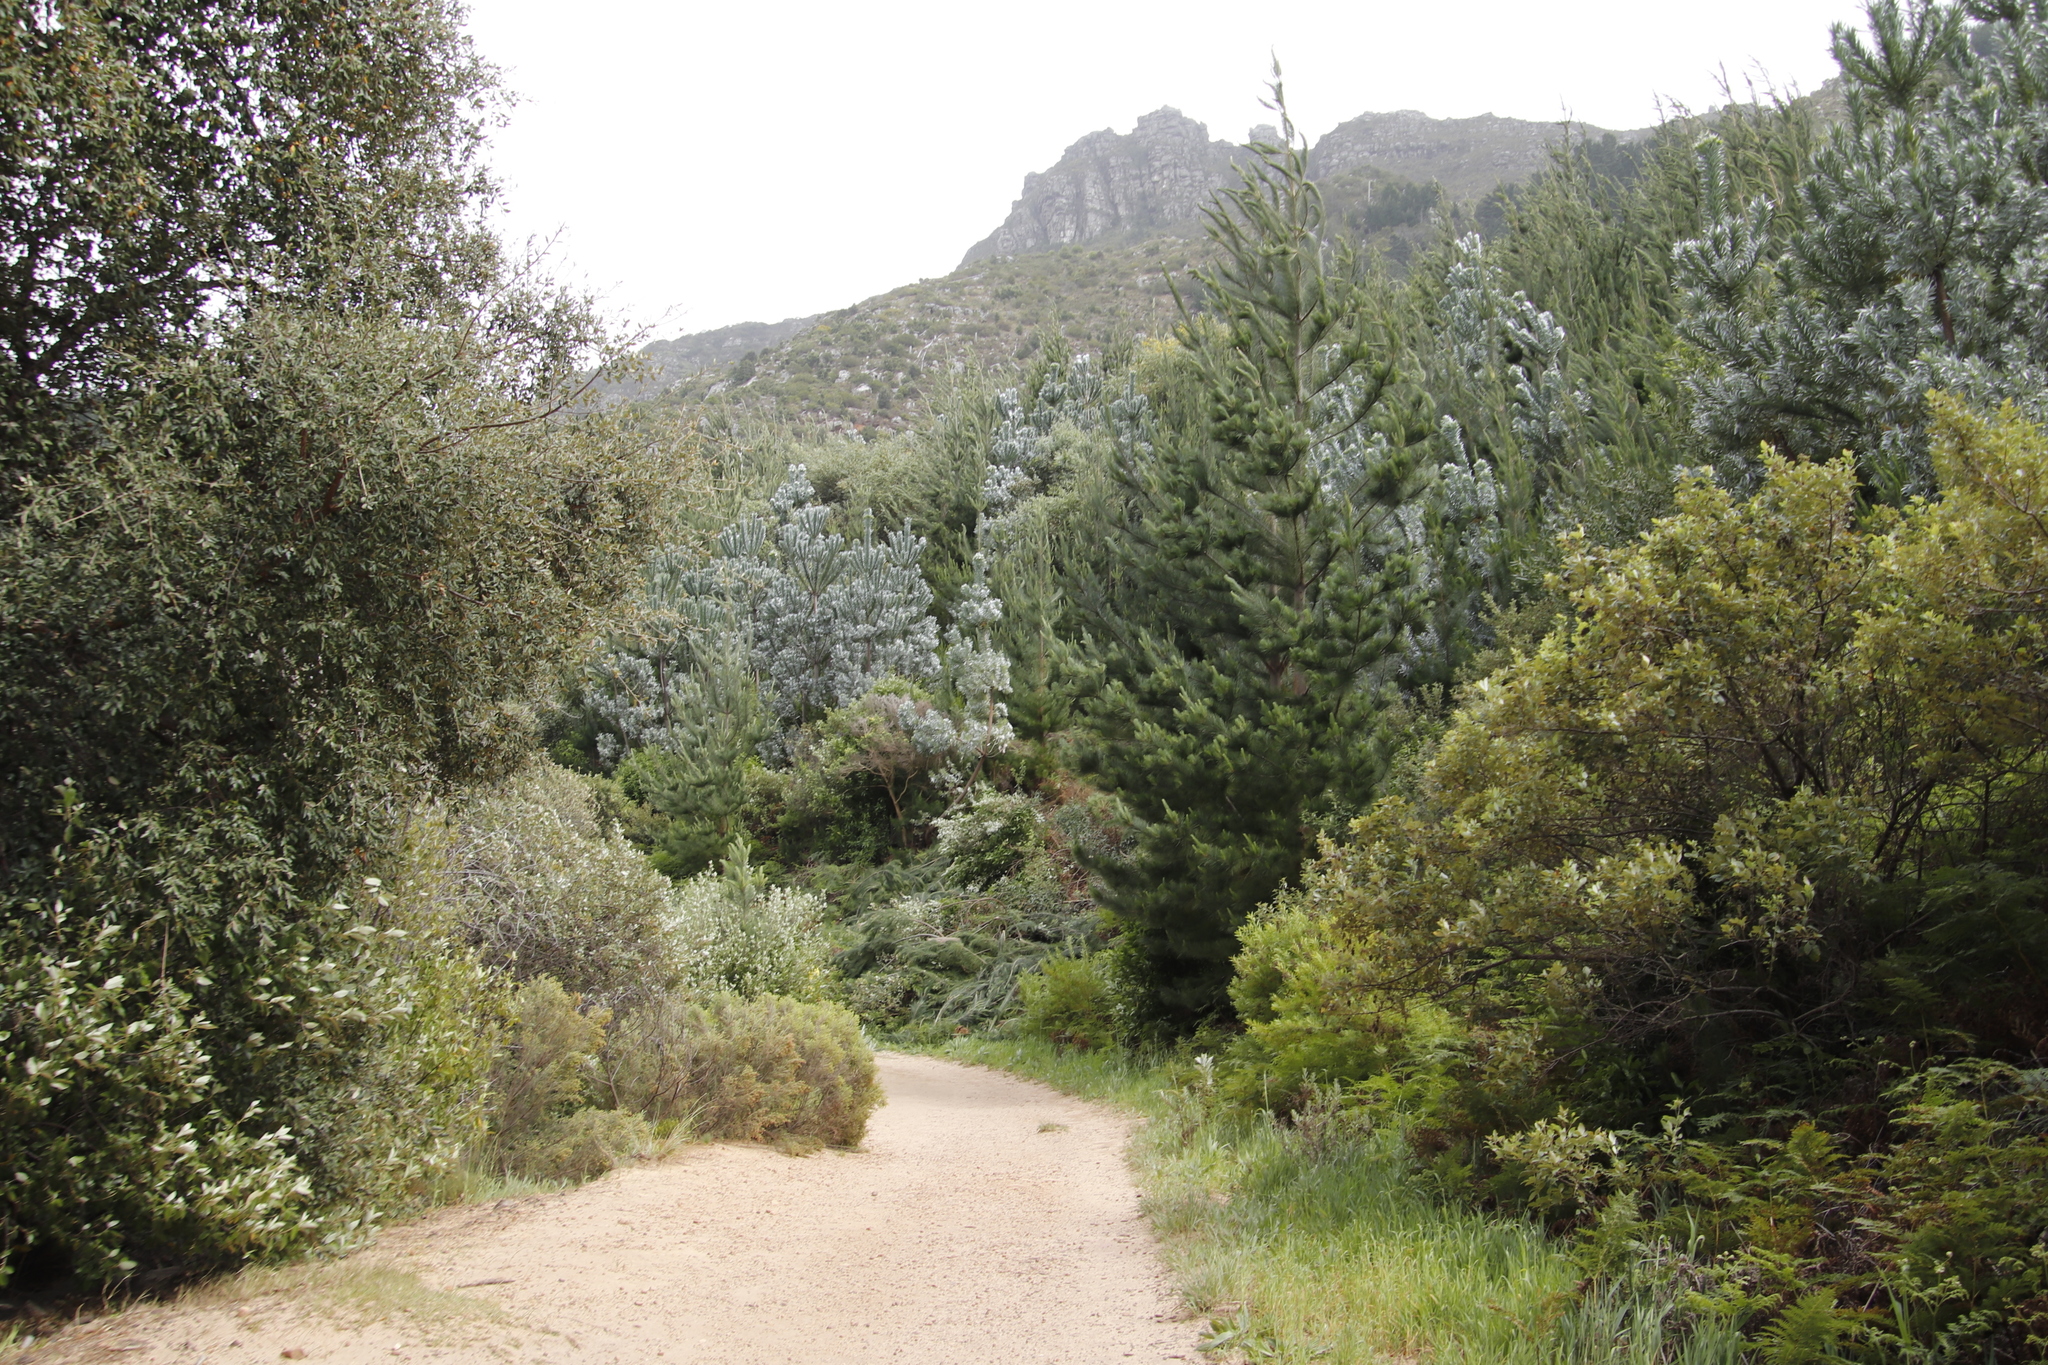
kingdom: Plantae
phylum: Tracheophyta
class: Magnoliopsida
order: Proteales
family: Proteaceae
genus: Leucadendron
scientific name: Leucadendron argenteum
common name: Cape silver tree
